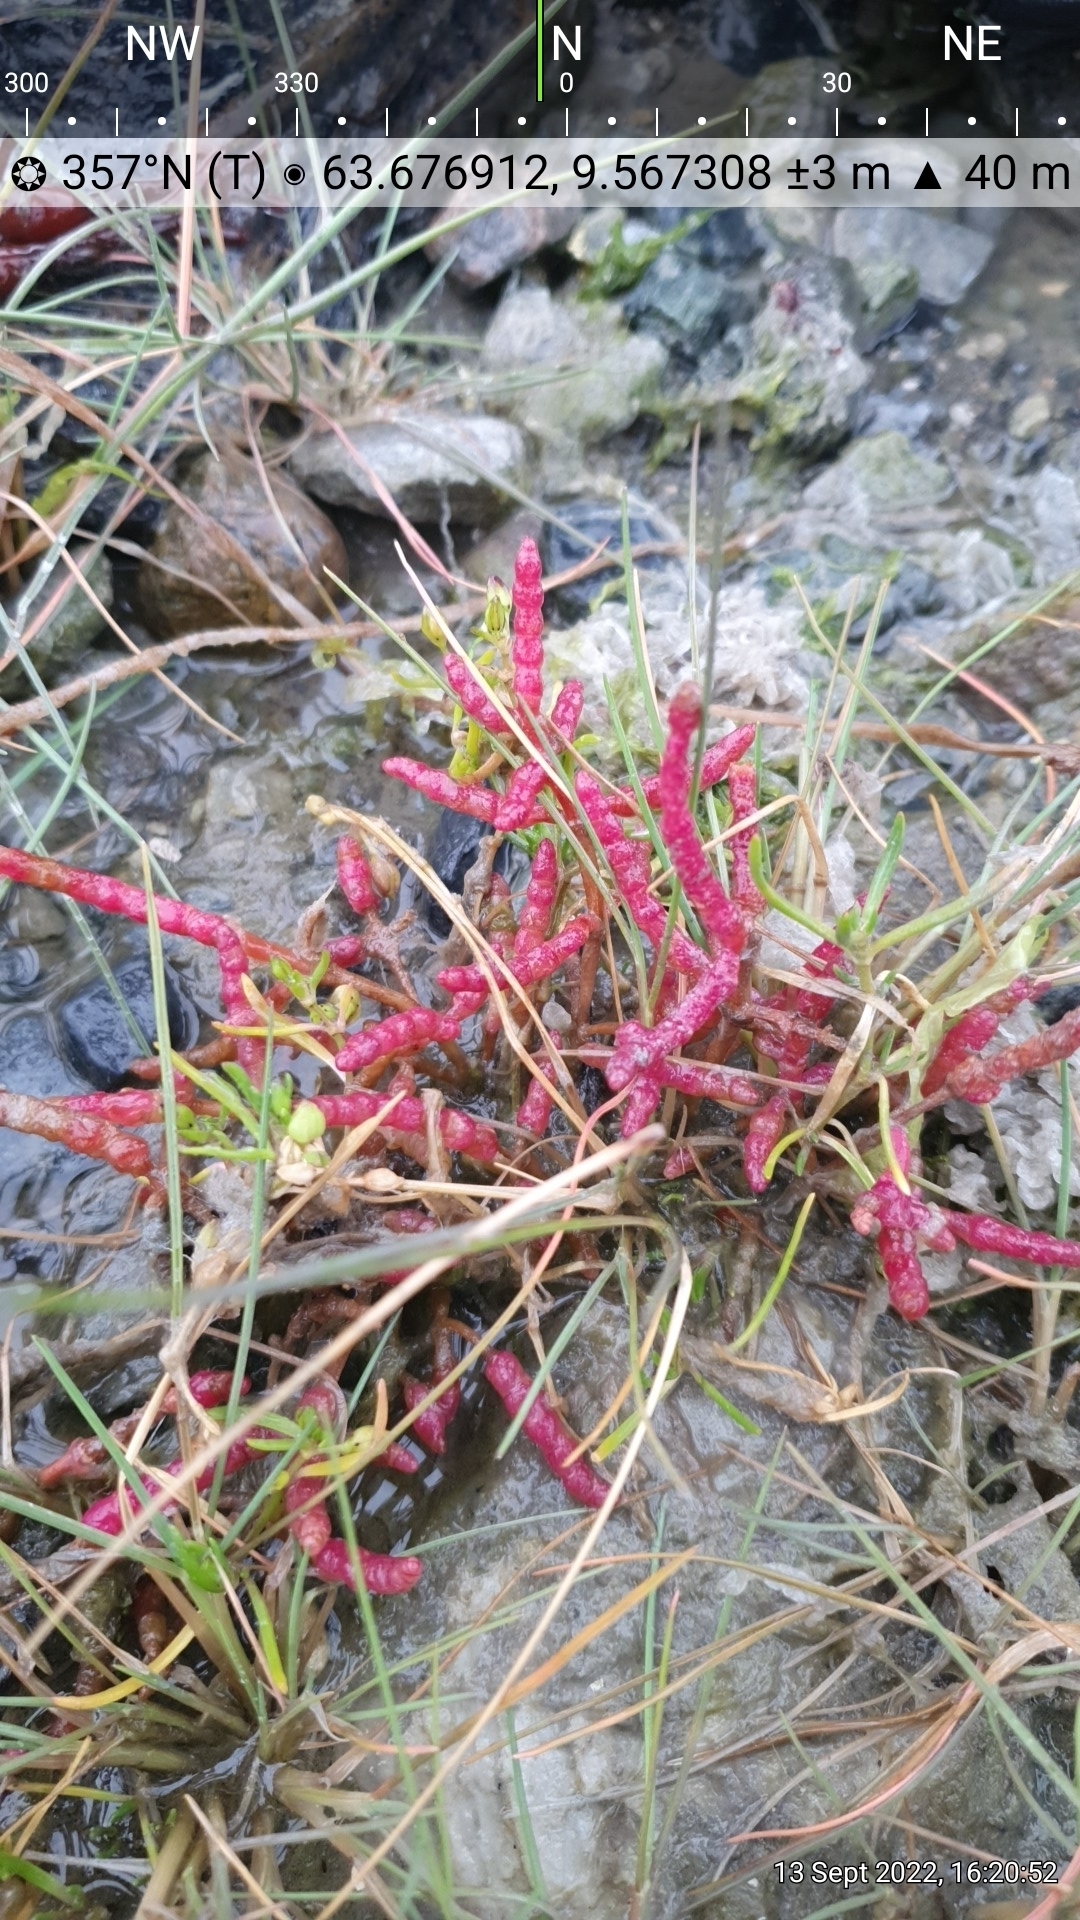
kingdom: Plantae
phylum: Tracheophyta
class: Magnoliopsida
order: Caryophyllales
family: Amaranthaceae
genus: Salicornia
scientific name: Salicornia europaea
